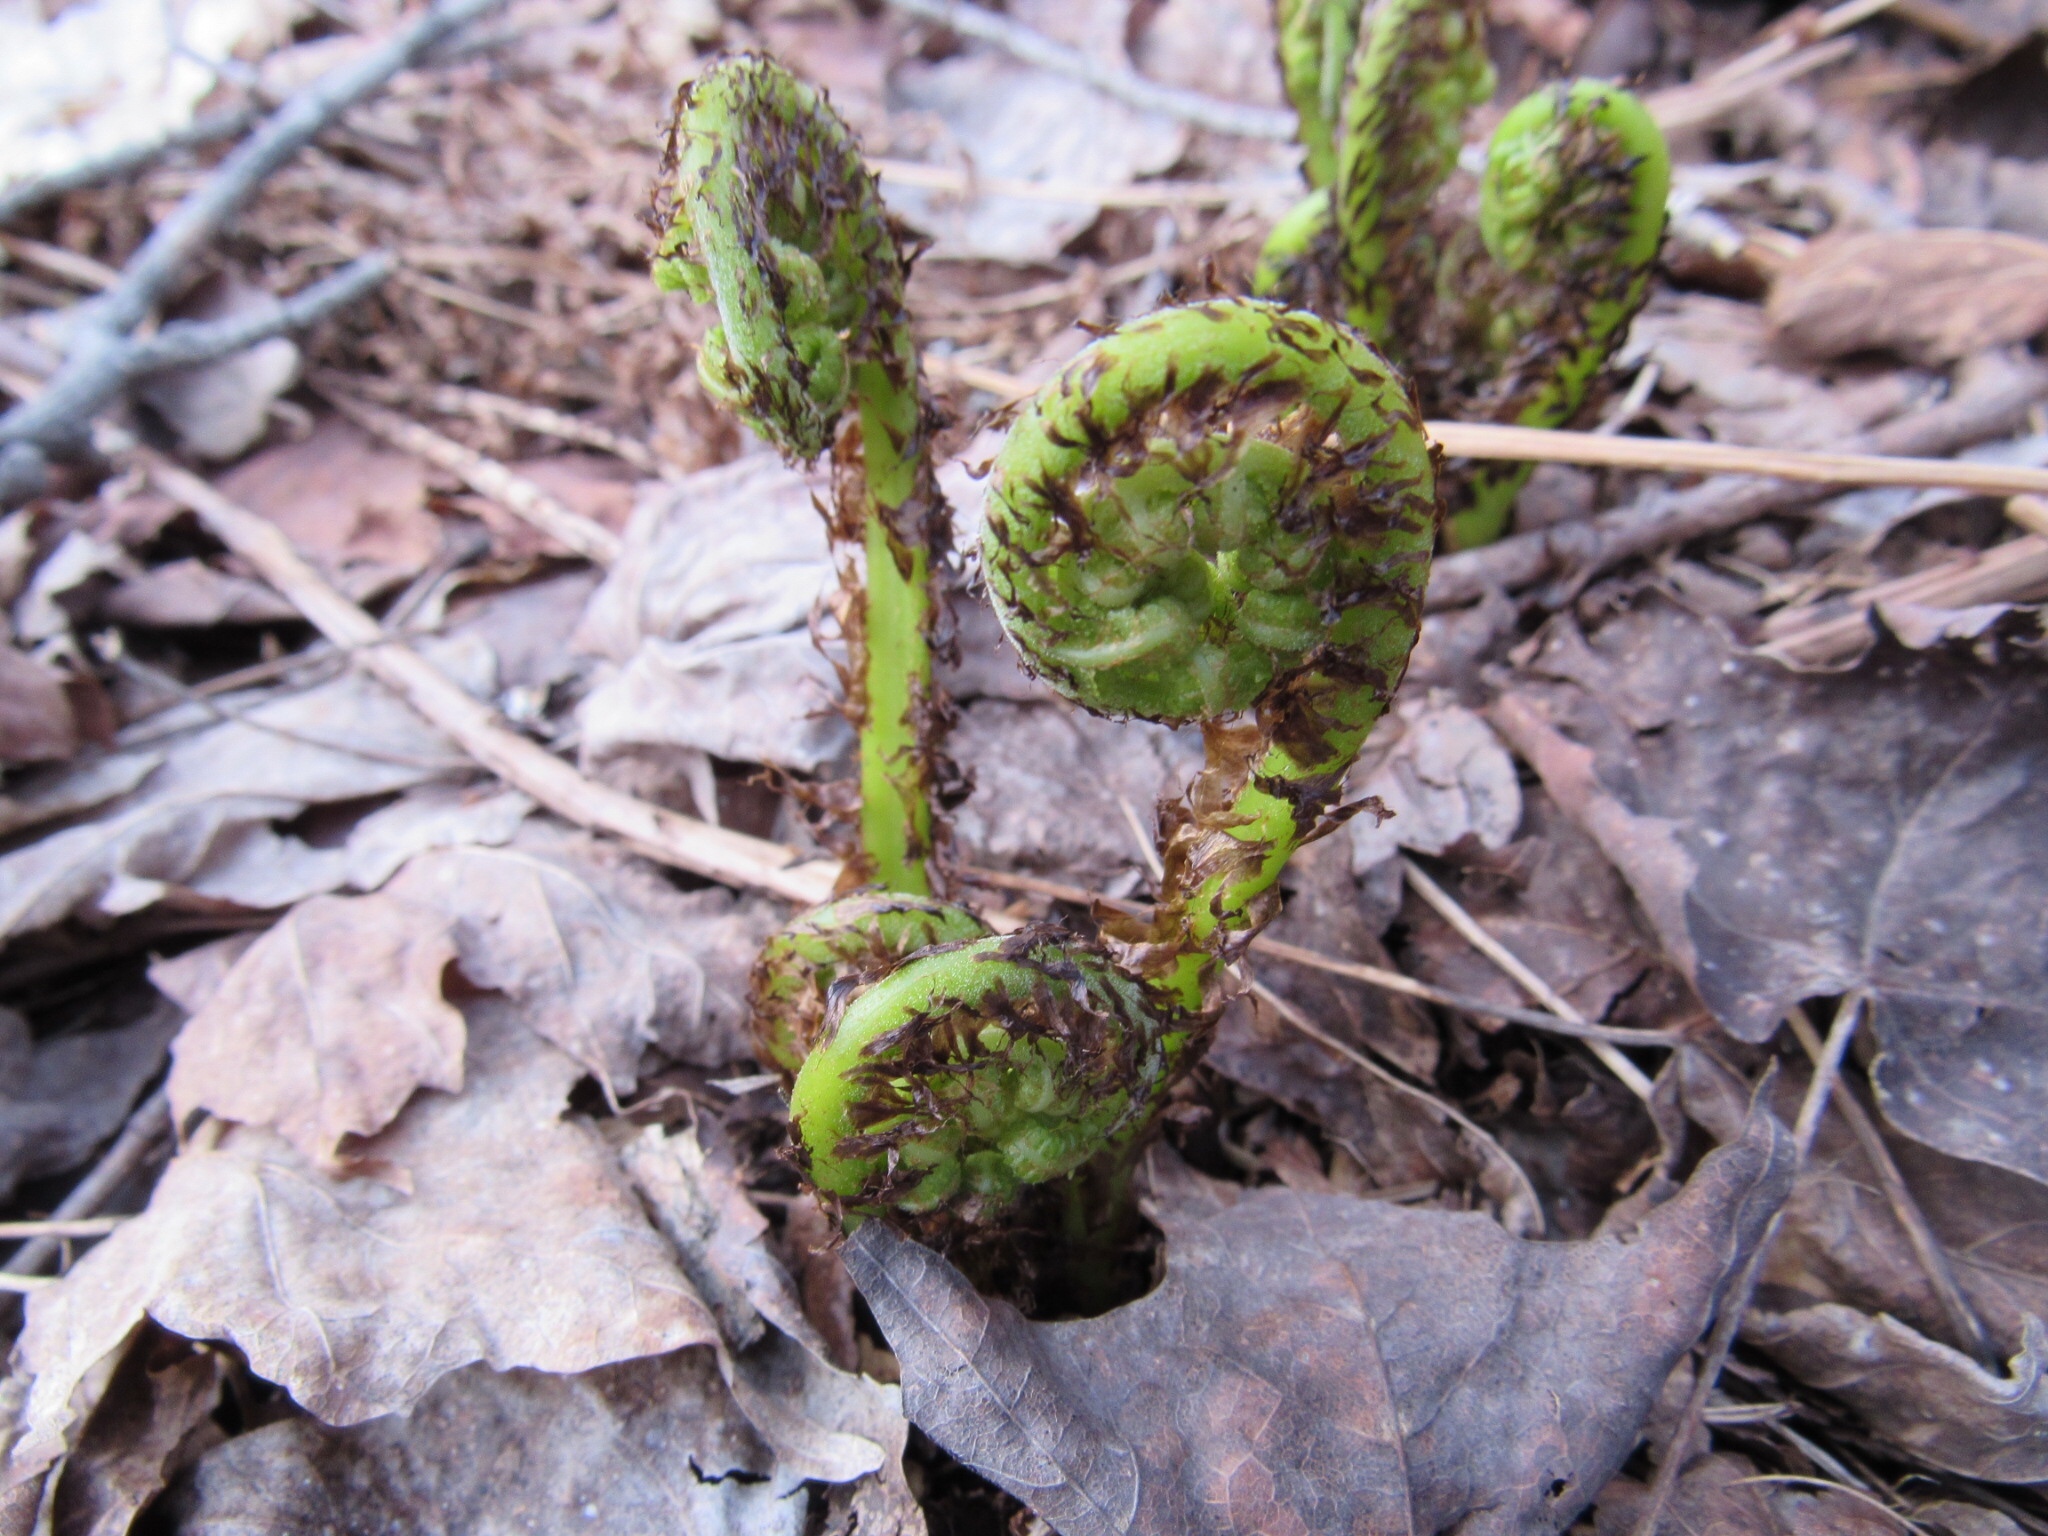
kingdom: Plantae
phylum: Tracheophyta
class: Polypodiopsida
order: Polypodiales
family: Athyriaceae
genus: Athyrium
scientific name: Athyrium angustum
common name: Northern lady fern
